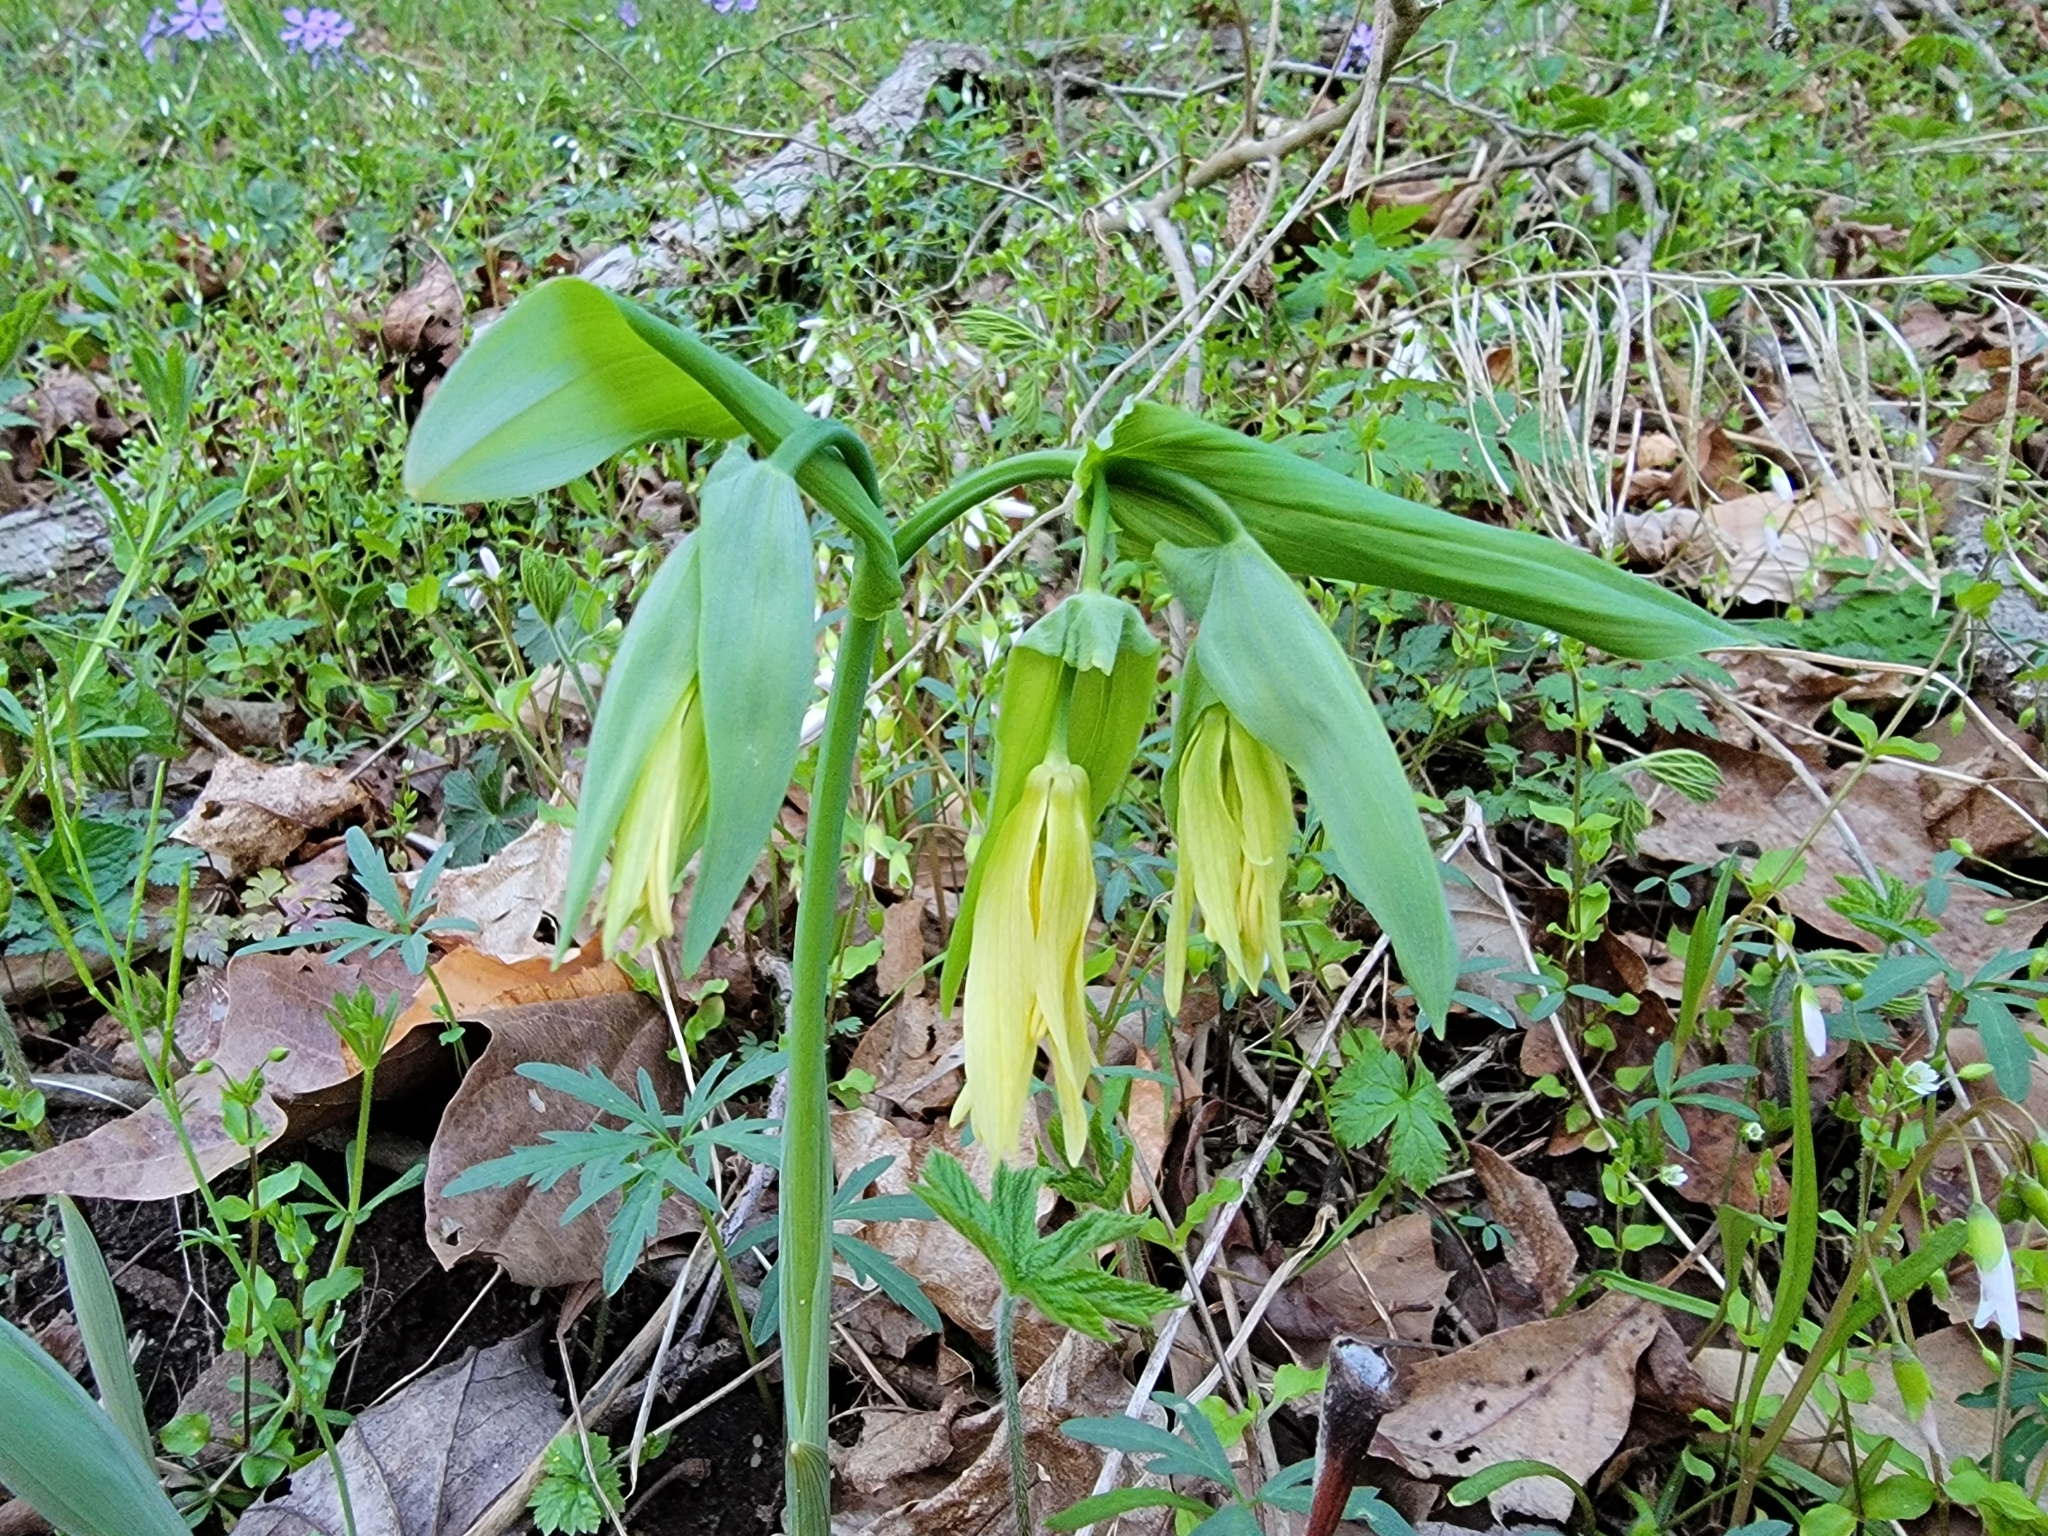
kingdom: Plantae
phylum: Tracheophyta
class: Liliopsida
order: Liliales
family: Colchicaceae
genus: Uvularia
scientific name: Uvularia grandiflora
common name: Bellwort
